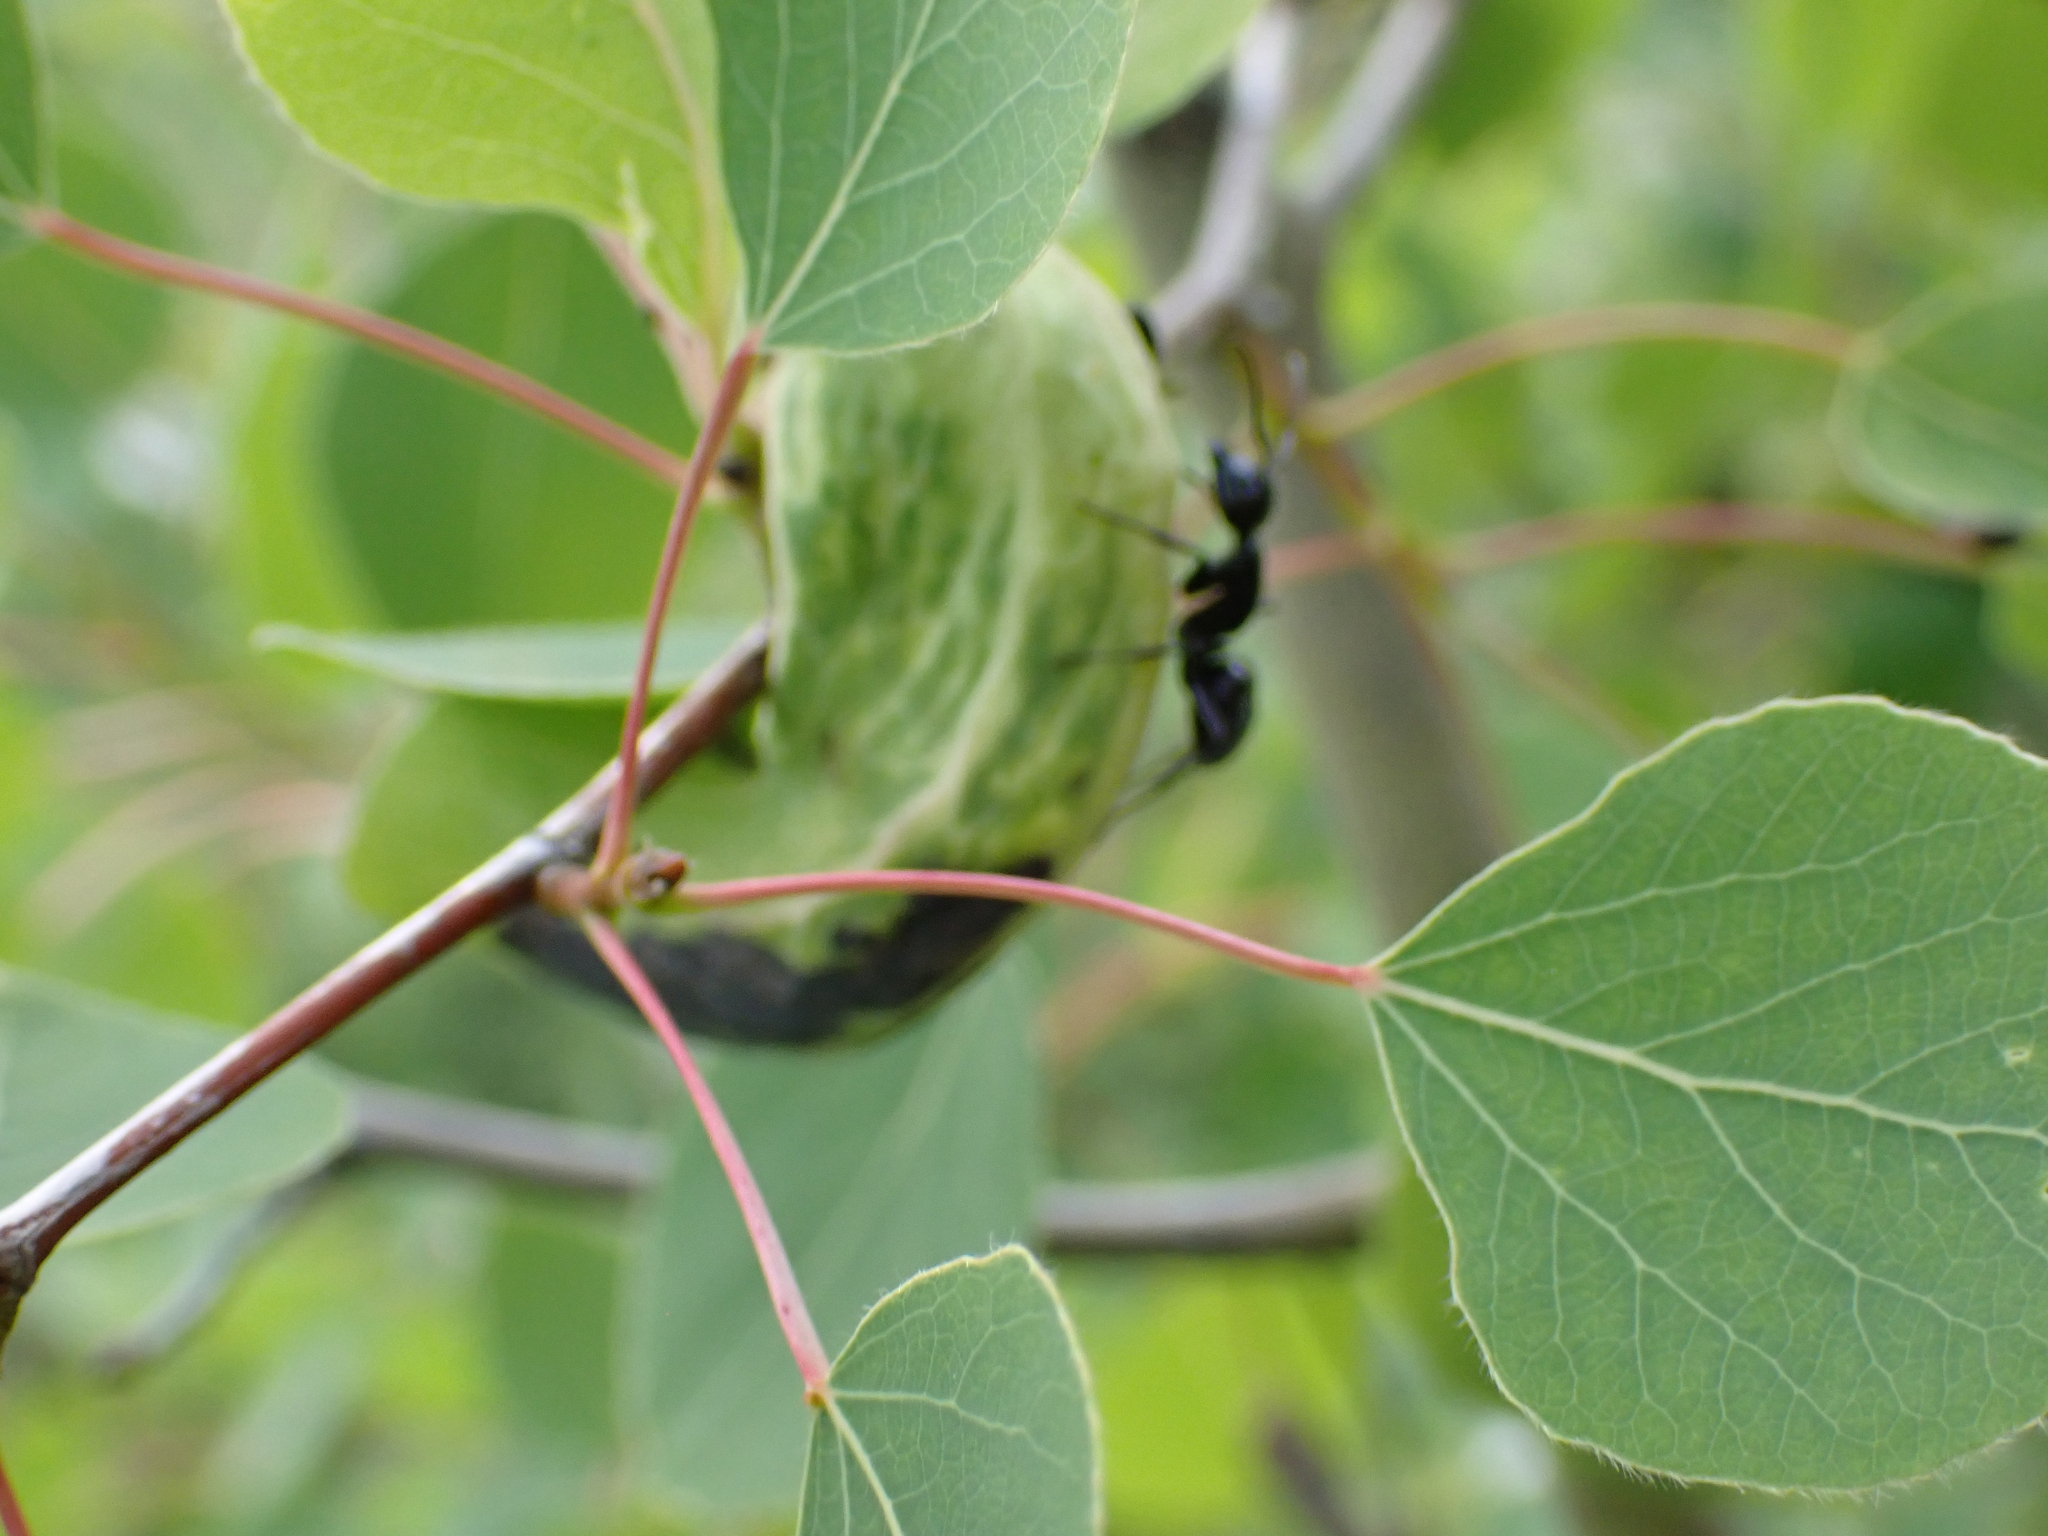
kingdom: Animalia
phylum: Arthropoda
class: Insecta
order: Hymenoptera
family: Formicidae
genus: Camponotus
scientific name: Camponotus
